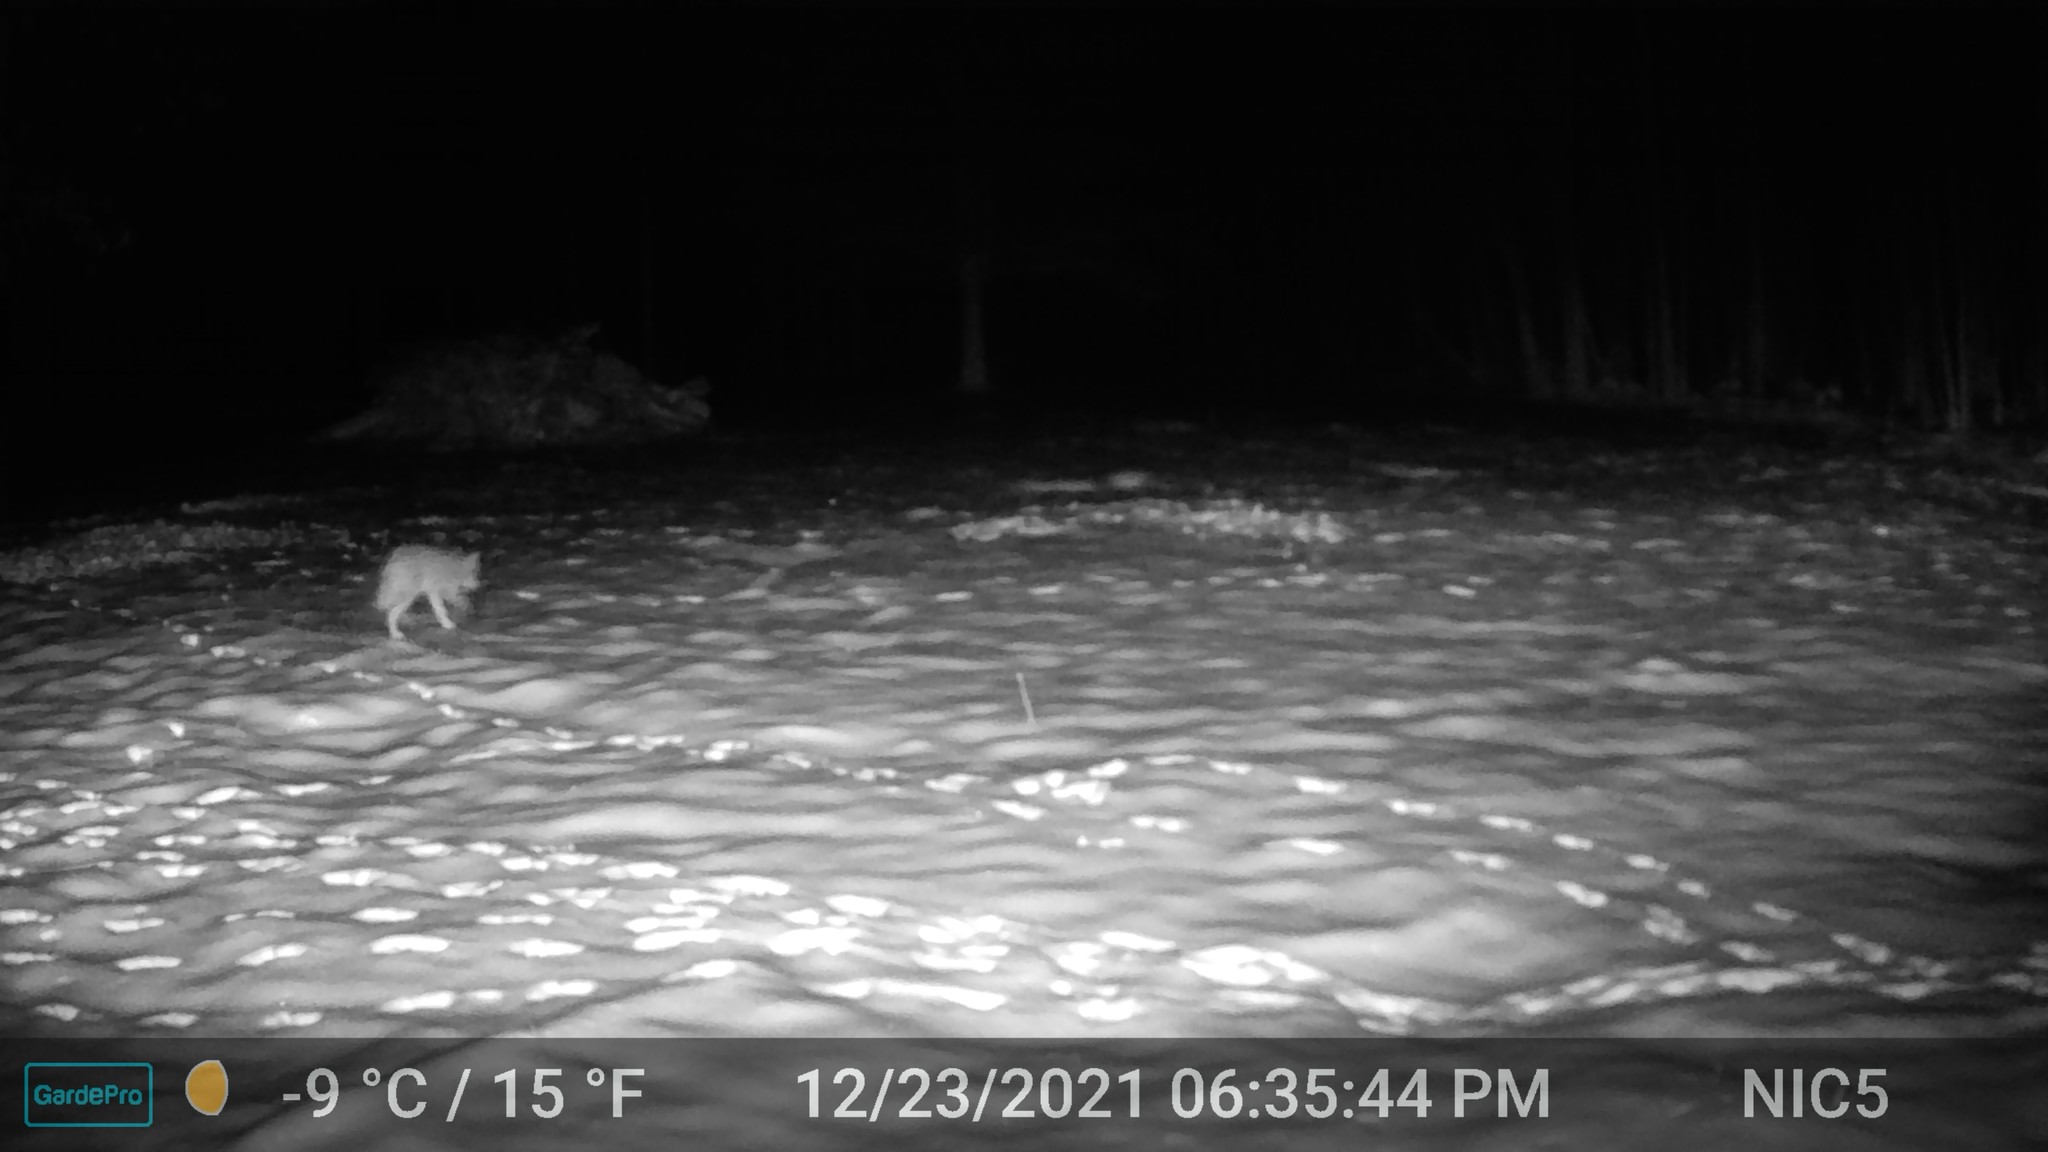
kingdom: Animalia
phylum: Chordata
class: Mammalia
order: Carnivora
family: Canidae
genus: Canis
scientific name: Canis latrans
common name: Coyote
